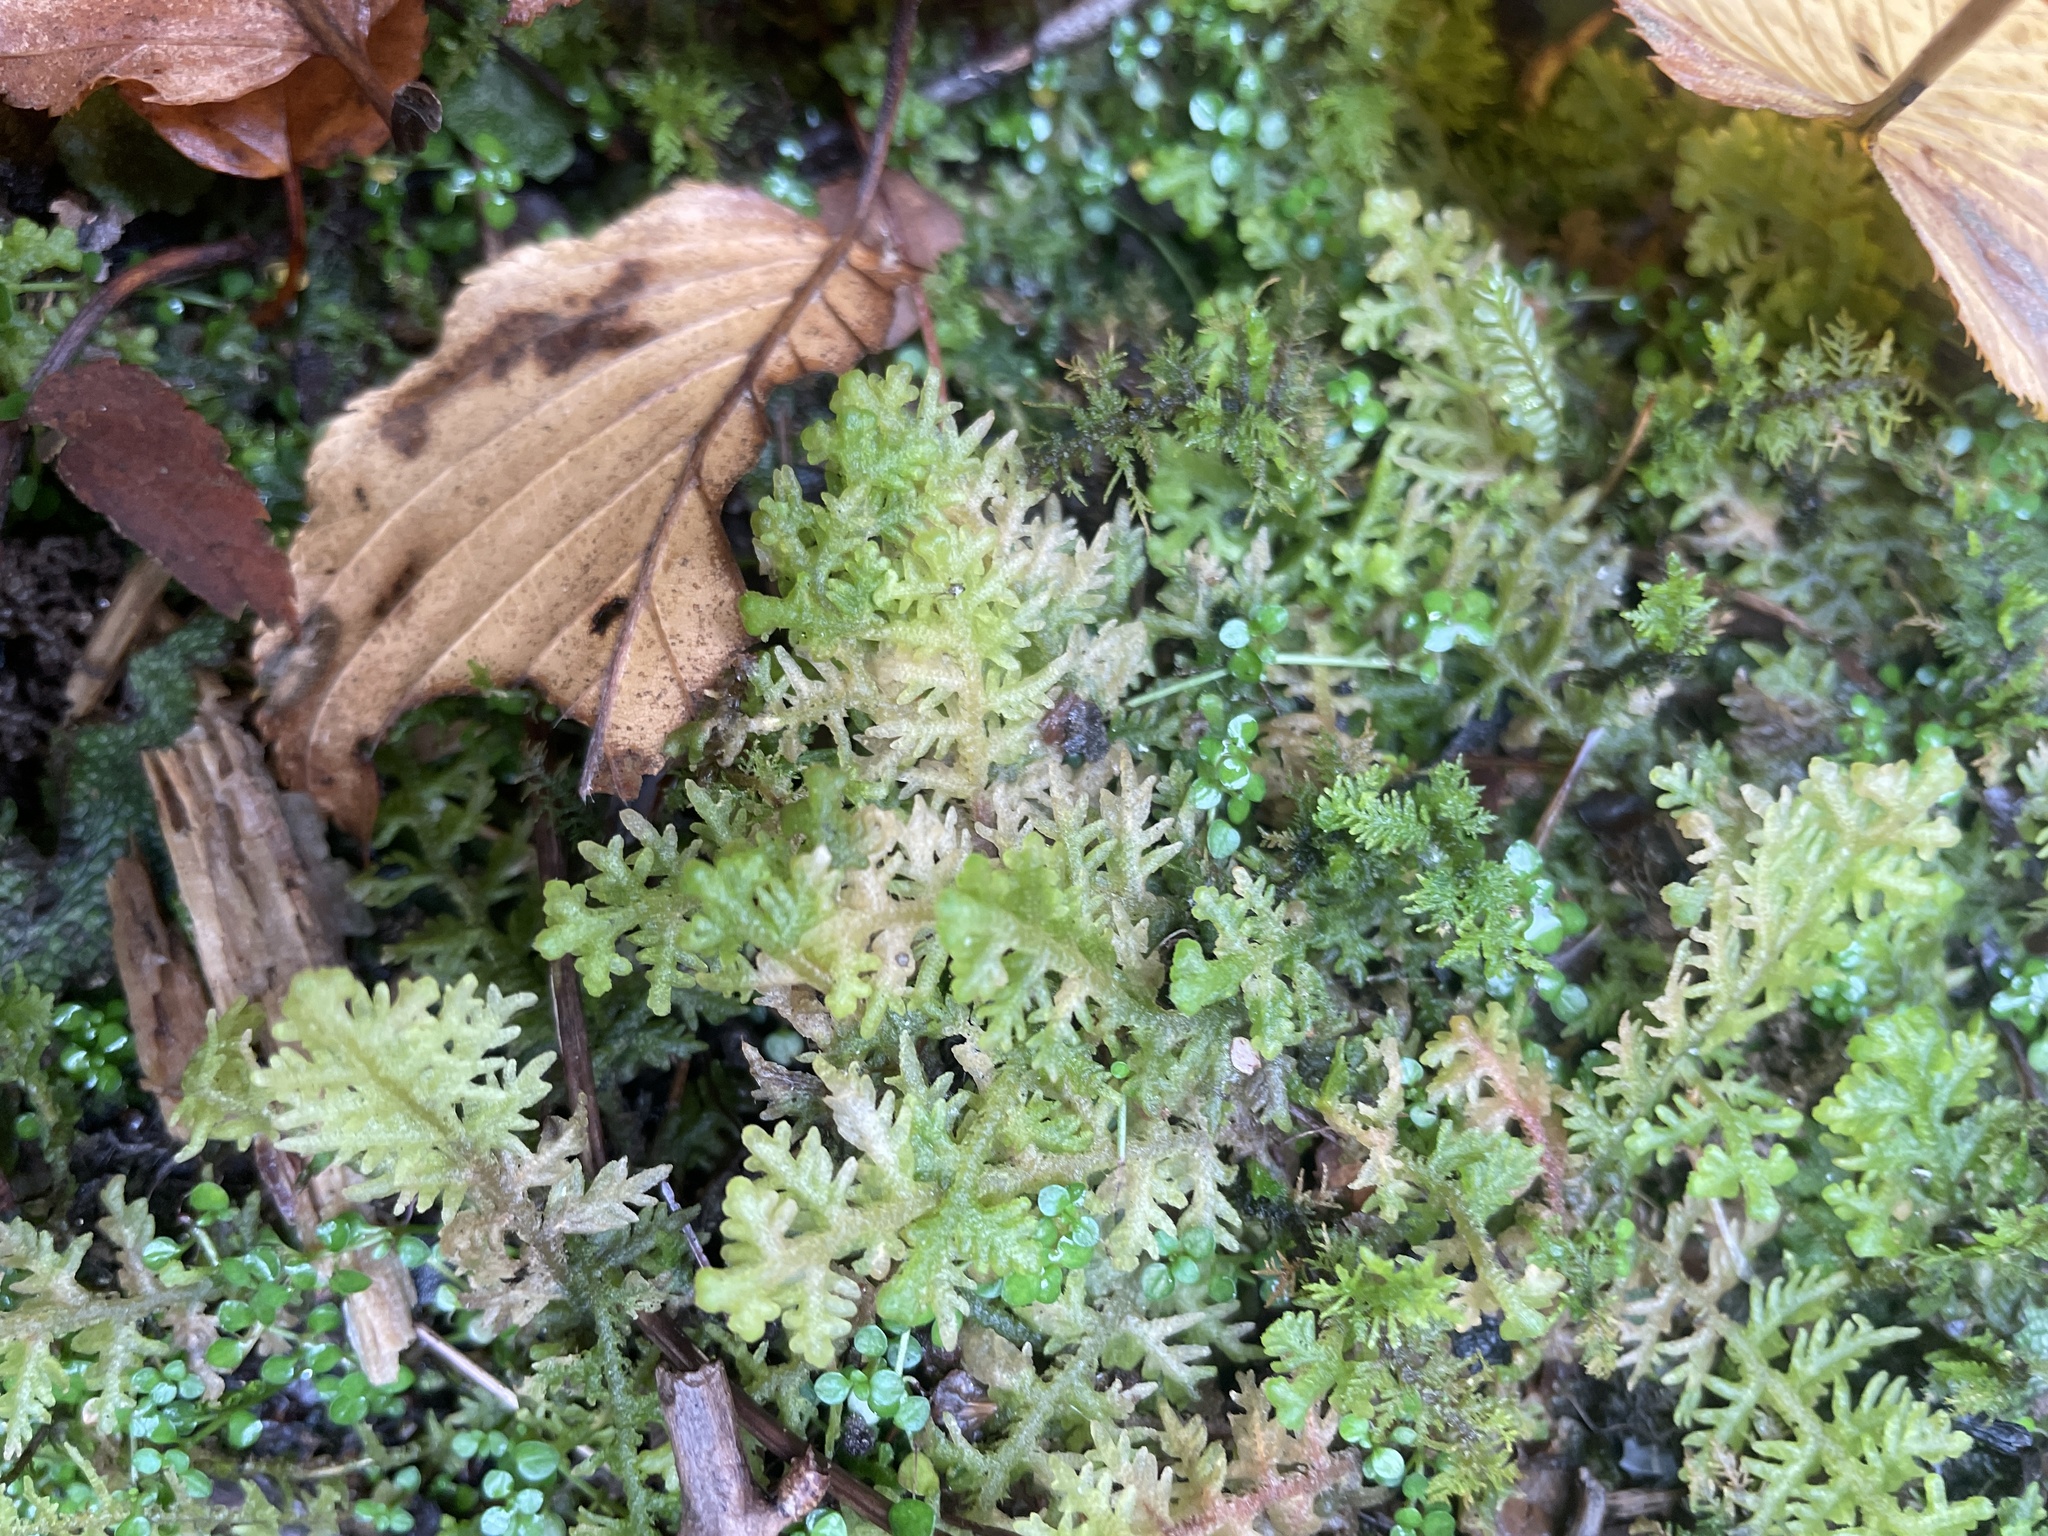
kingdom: Plantae
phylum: Marchantiophyta
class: Jungermanniopsida
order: Jungermanniales
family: Trichocoleaceae
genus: Trichocolea
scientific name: Trichocolea tomentella
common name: Woolly liverwort
